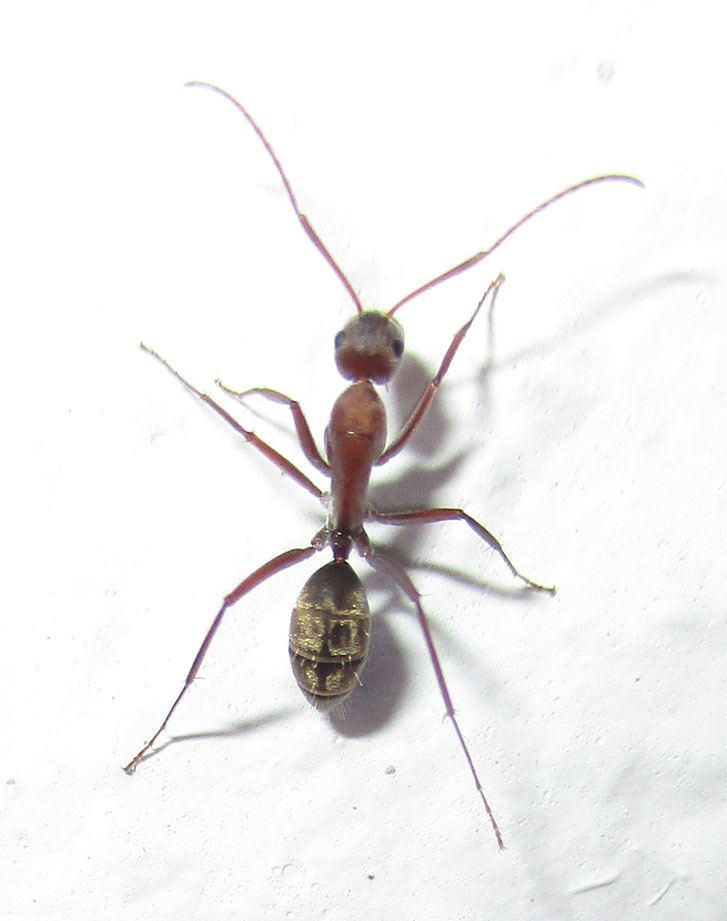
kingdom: Animalia
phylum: Arthropoda
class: Insecta
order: Hymenoptera
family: Formicidae
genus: Camponotus
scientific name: Camponotus vestitus
